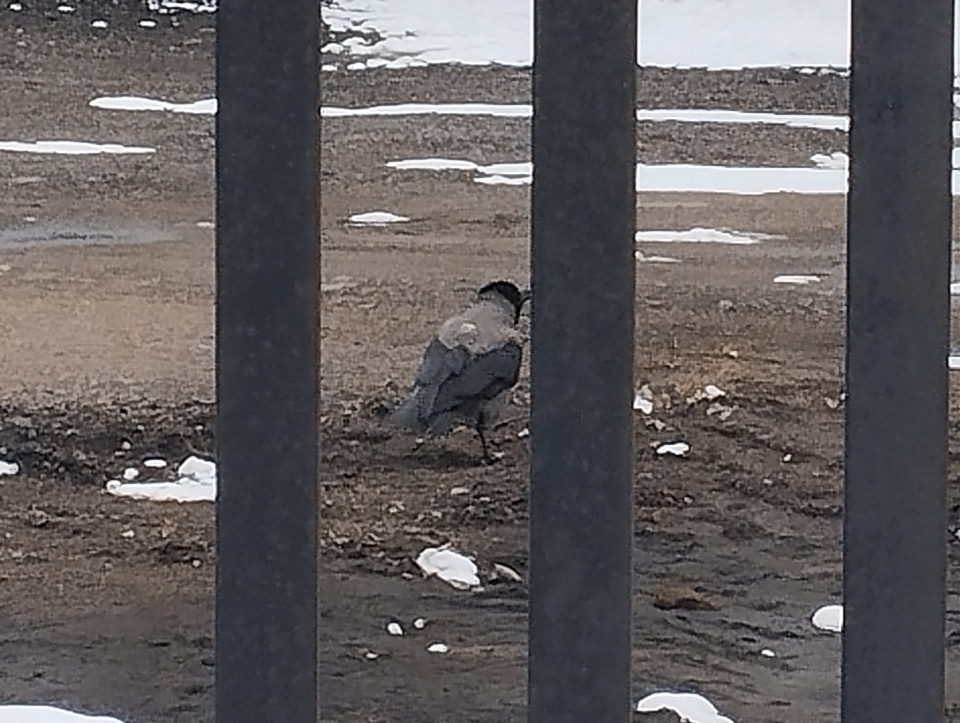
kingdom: Animalia
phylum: Chordata
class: Aves
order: Passeriformes
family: Corvidae
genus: Corvus
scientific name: Corvus cornix
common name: Hooded crow
